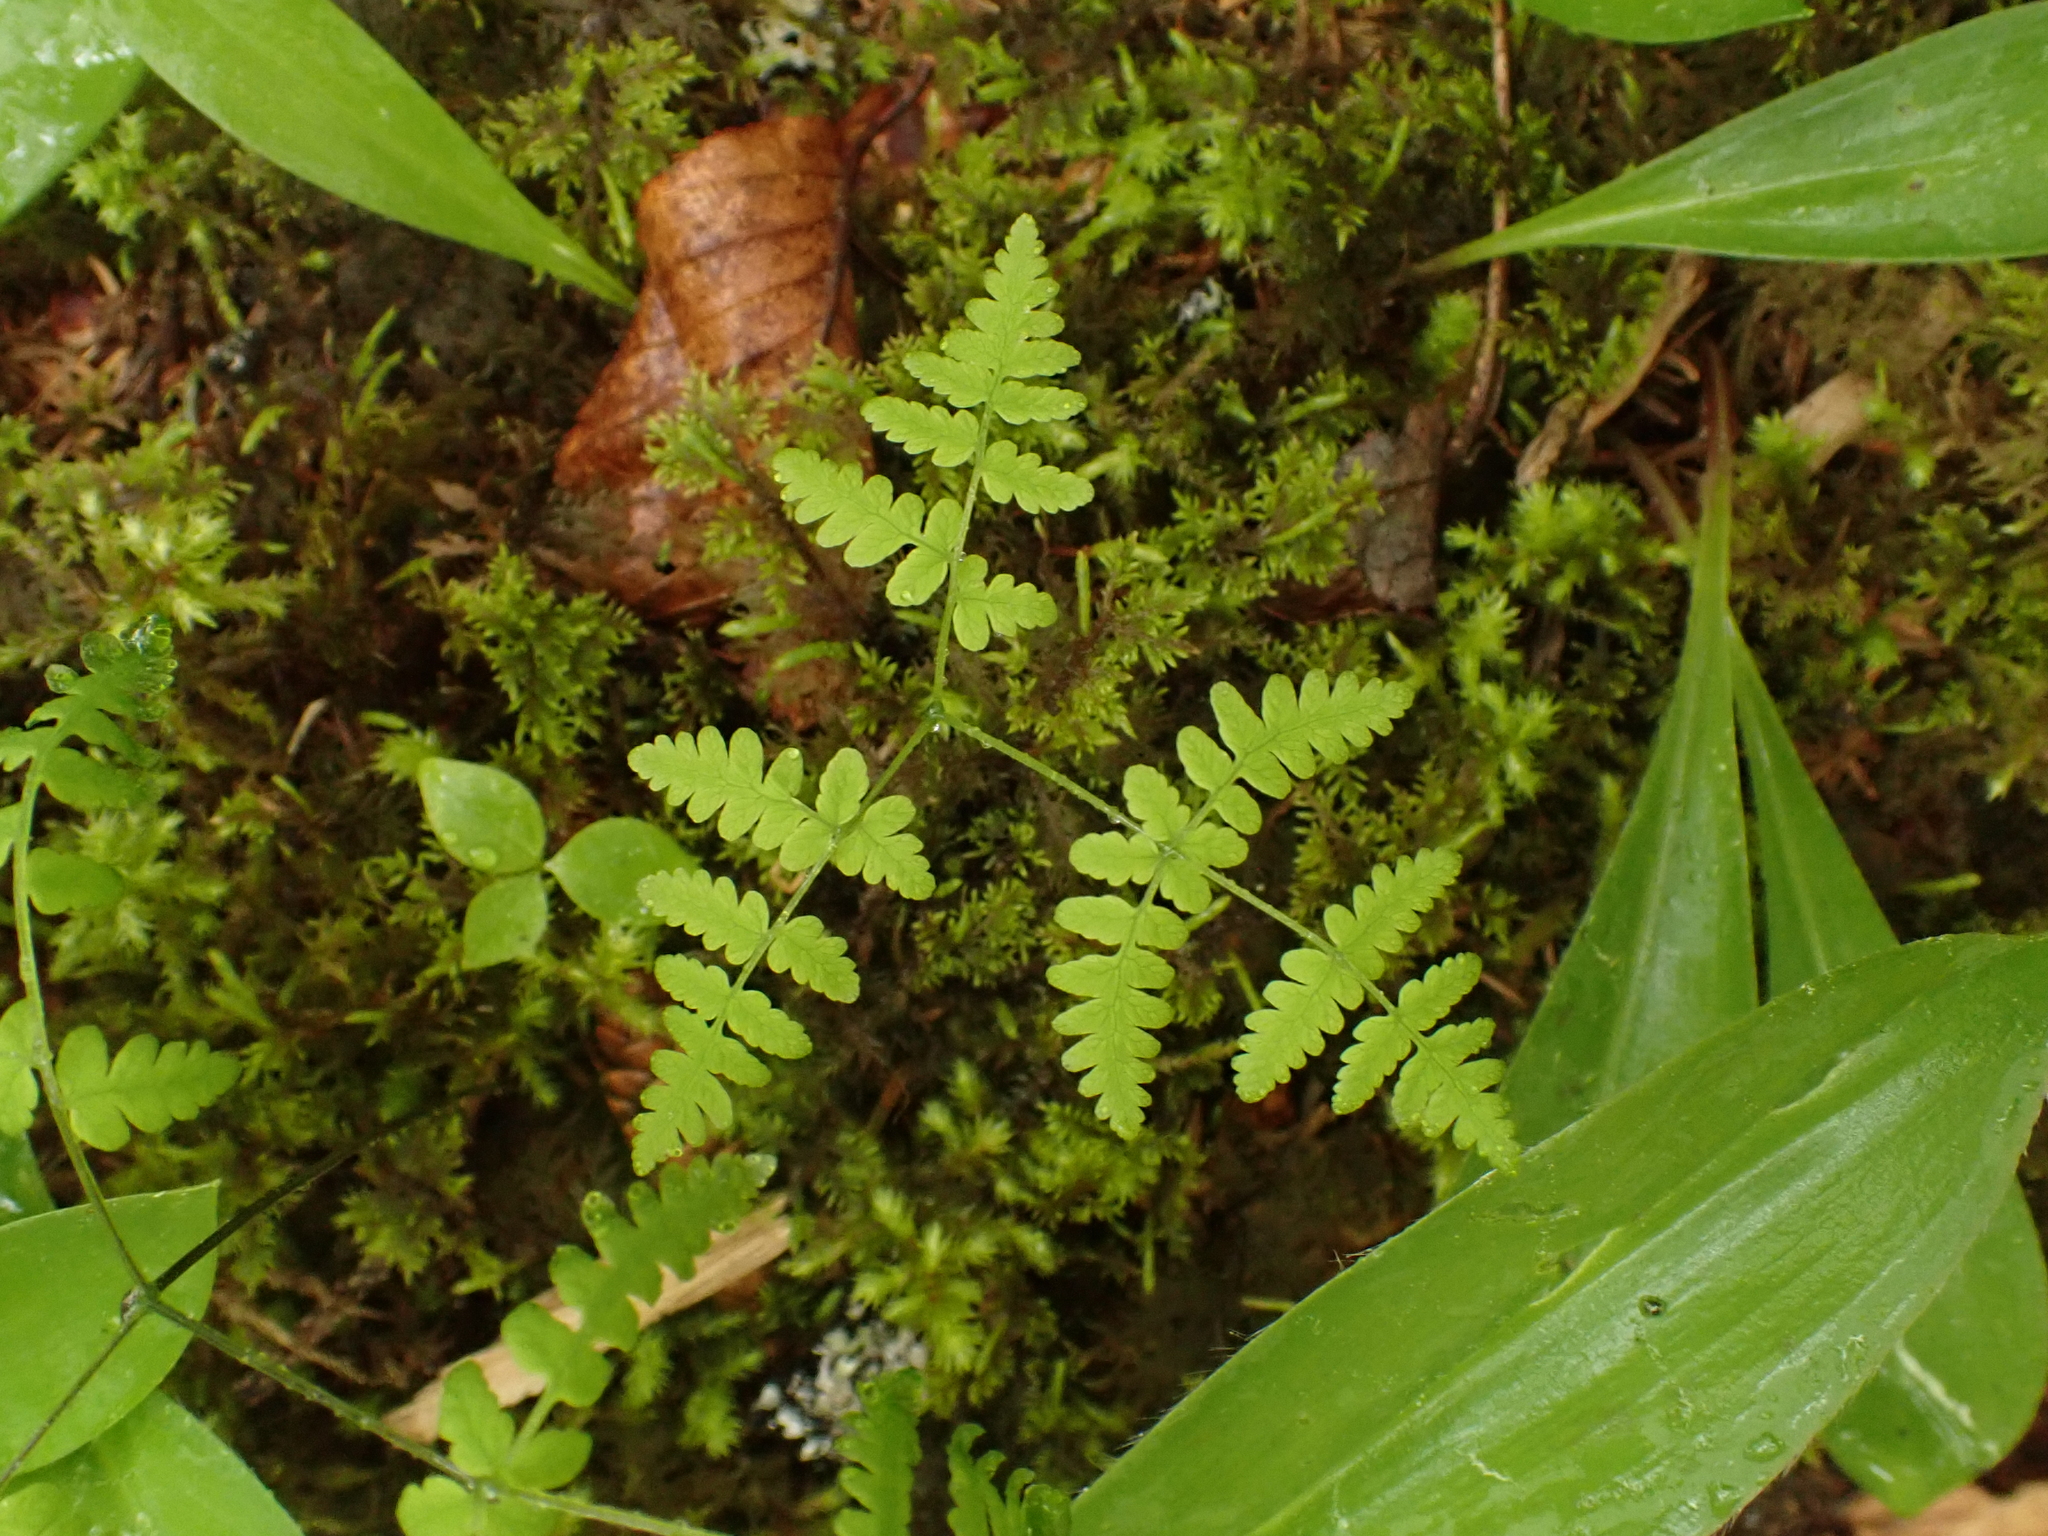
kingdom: Plantae
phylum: Tracheophyta
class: Polypodiopsida
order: Polypodiales
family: Cystopteridaceae
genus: Gymnocarpium
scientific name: Gymnocarpium dryopteris
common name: Oak fern
